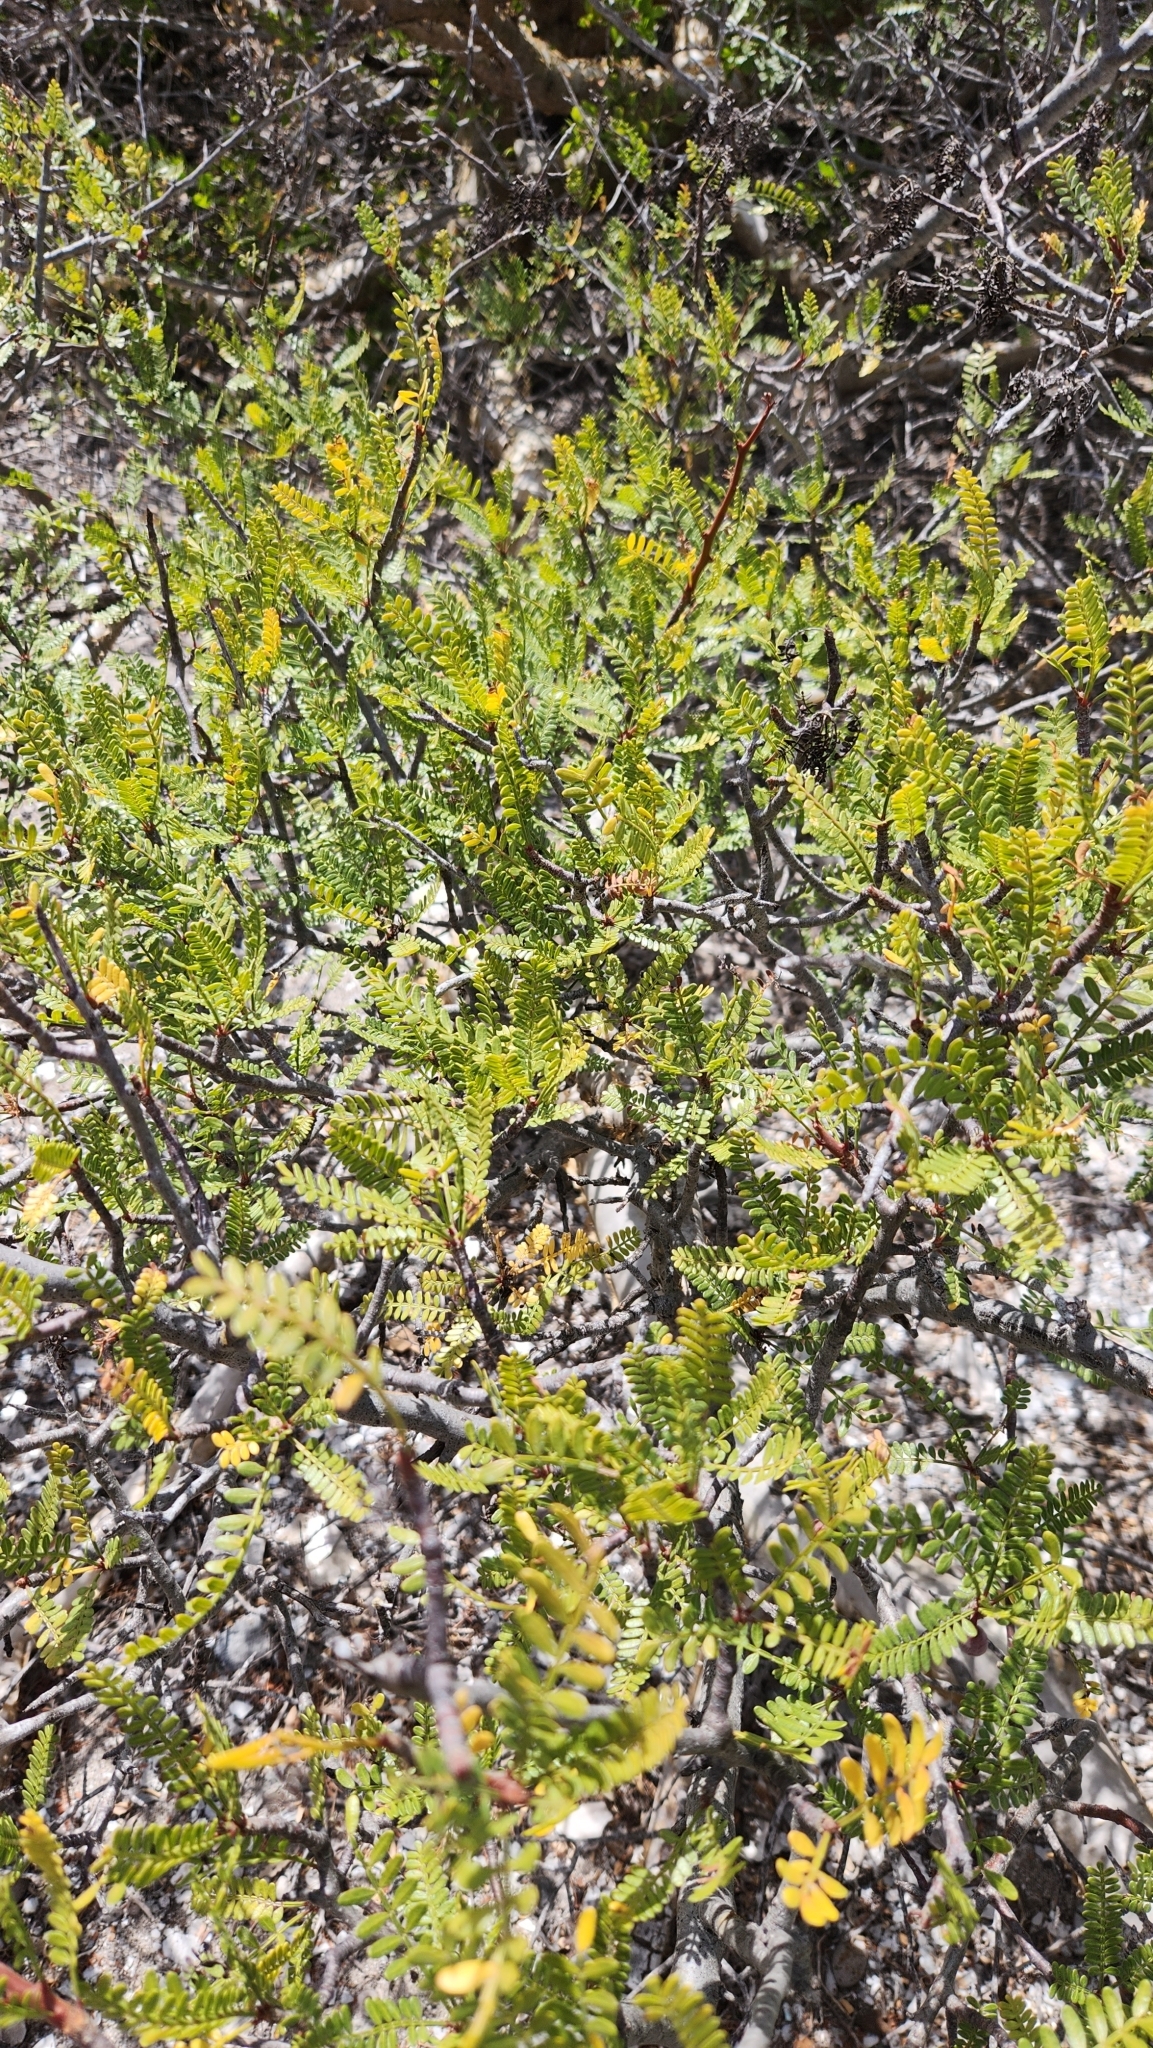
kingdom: Plantae
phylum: Tracheophyta
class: Magnoliopsida
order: Sapindales
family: Burseraceae
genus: Bursera
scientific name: Bursera microphylla
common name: Elephant tree
